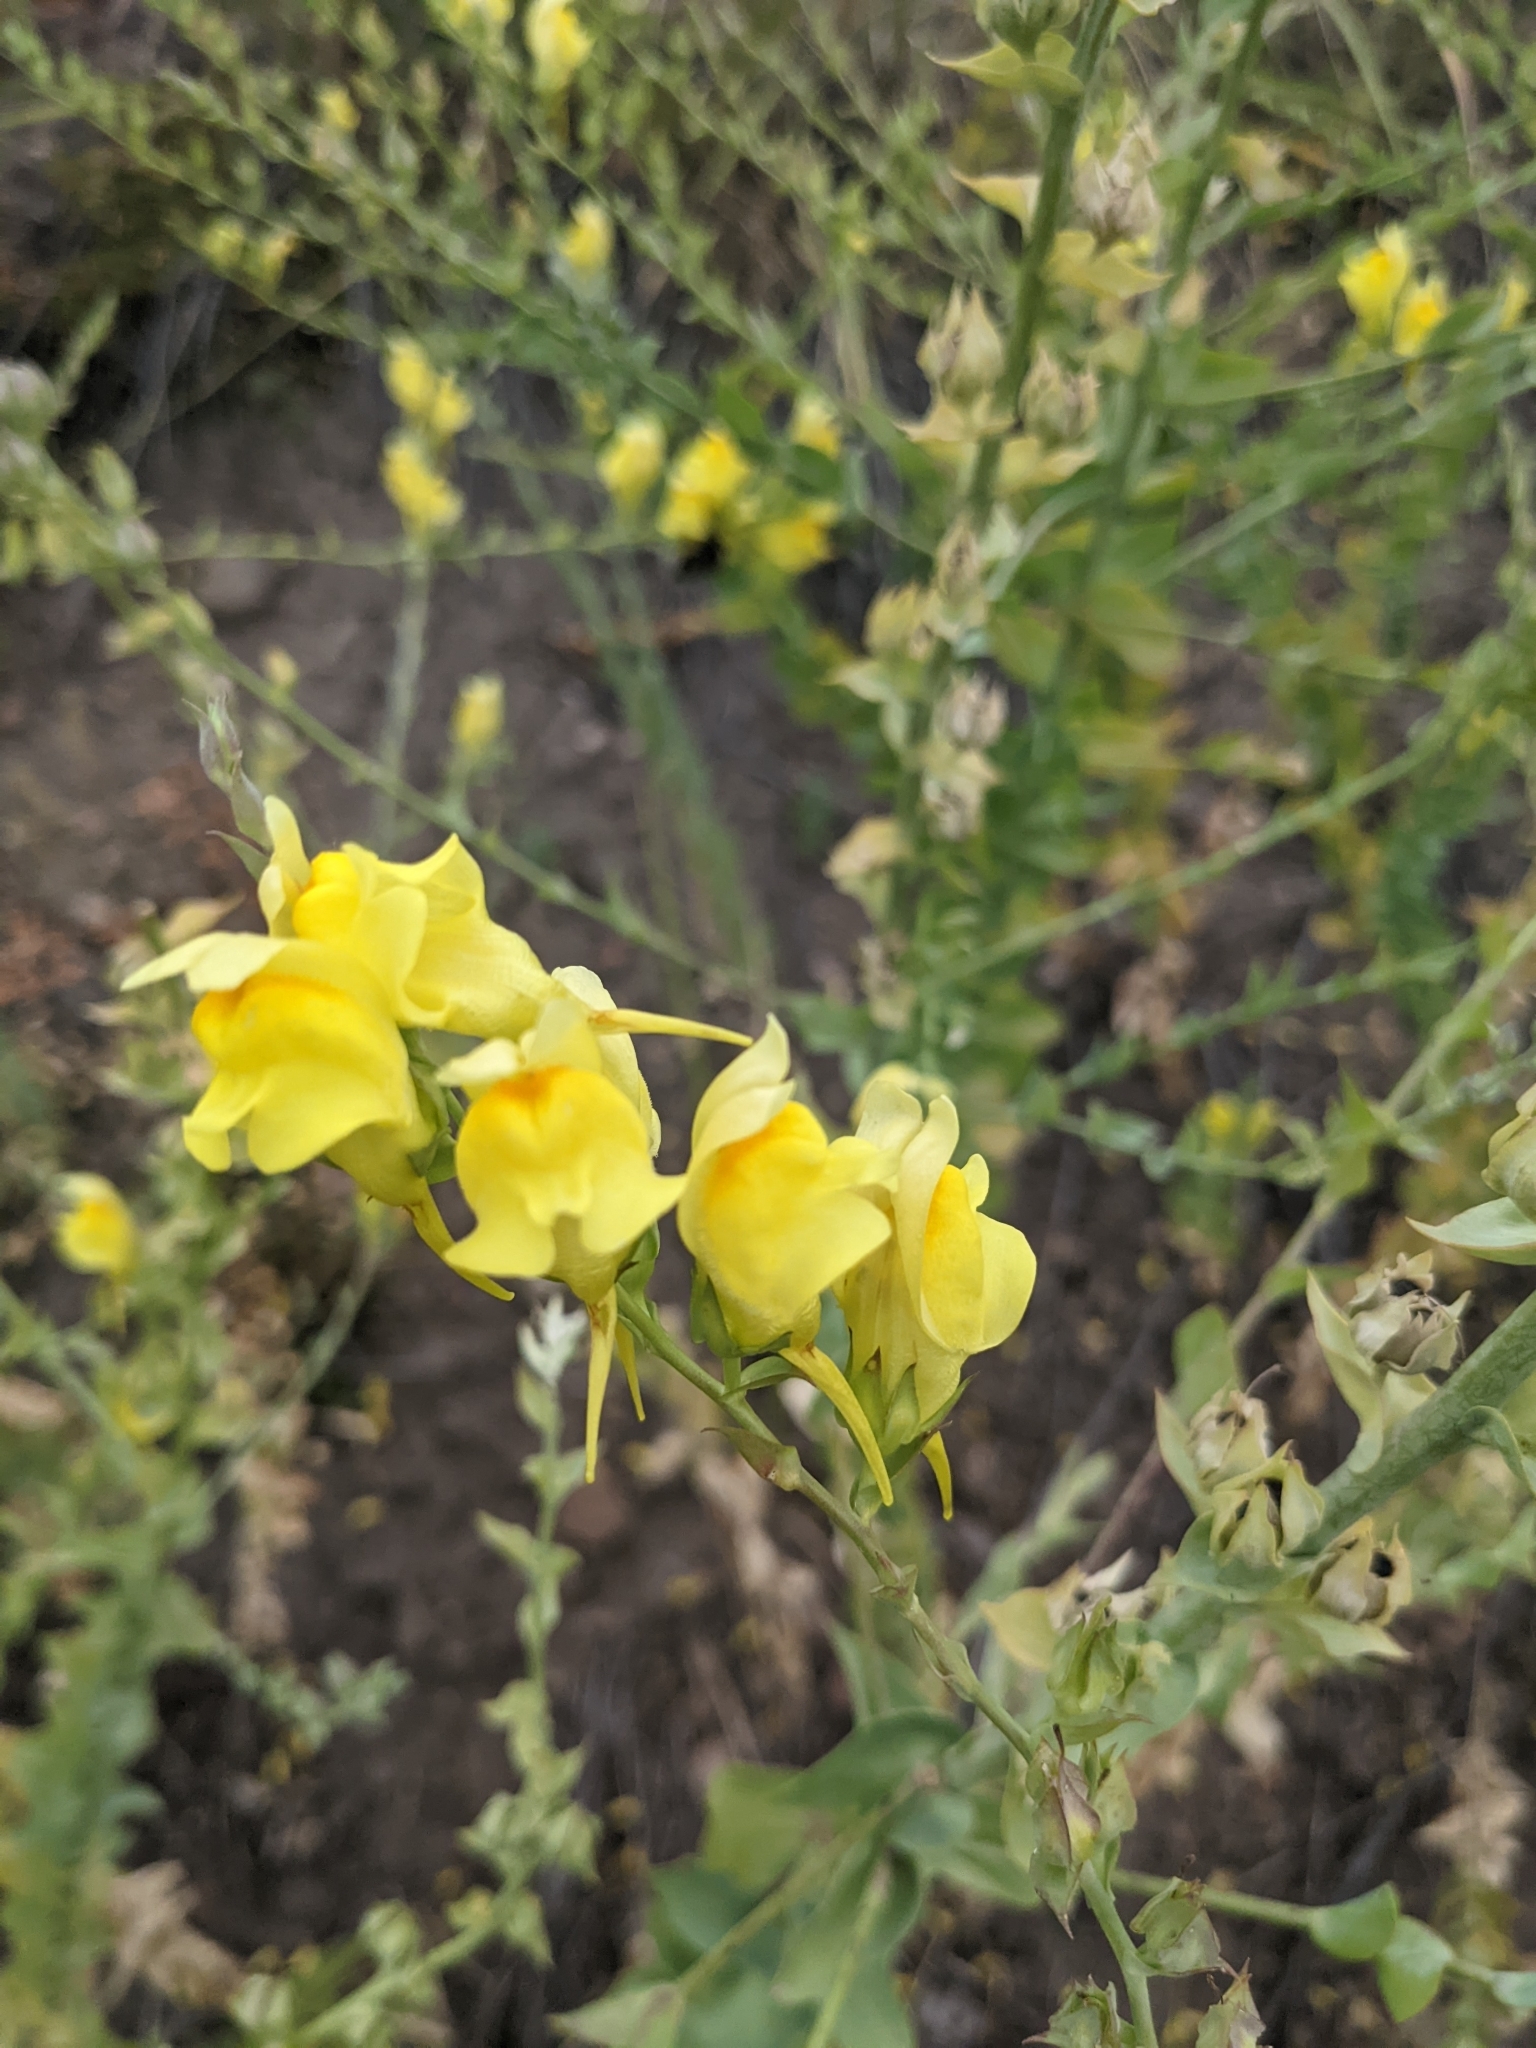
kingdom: Plantae
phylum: Tracheophyta
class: Magnoliopsida
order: Lamiales
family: Plantaginaceae
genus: Linaria
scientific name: Linaria dalmatica
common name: Dalmatian toadflax
